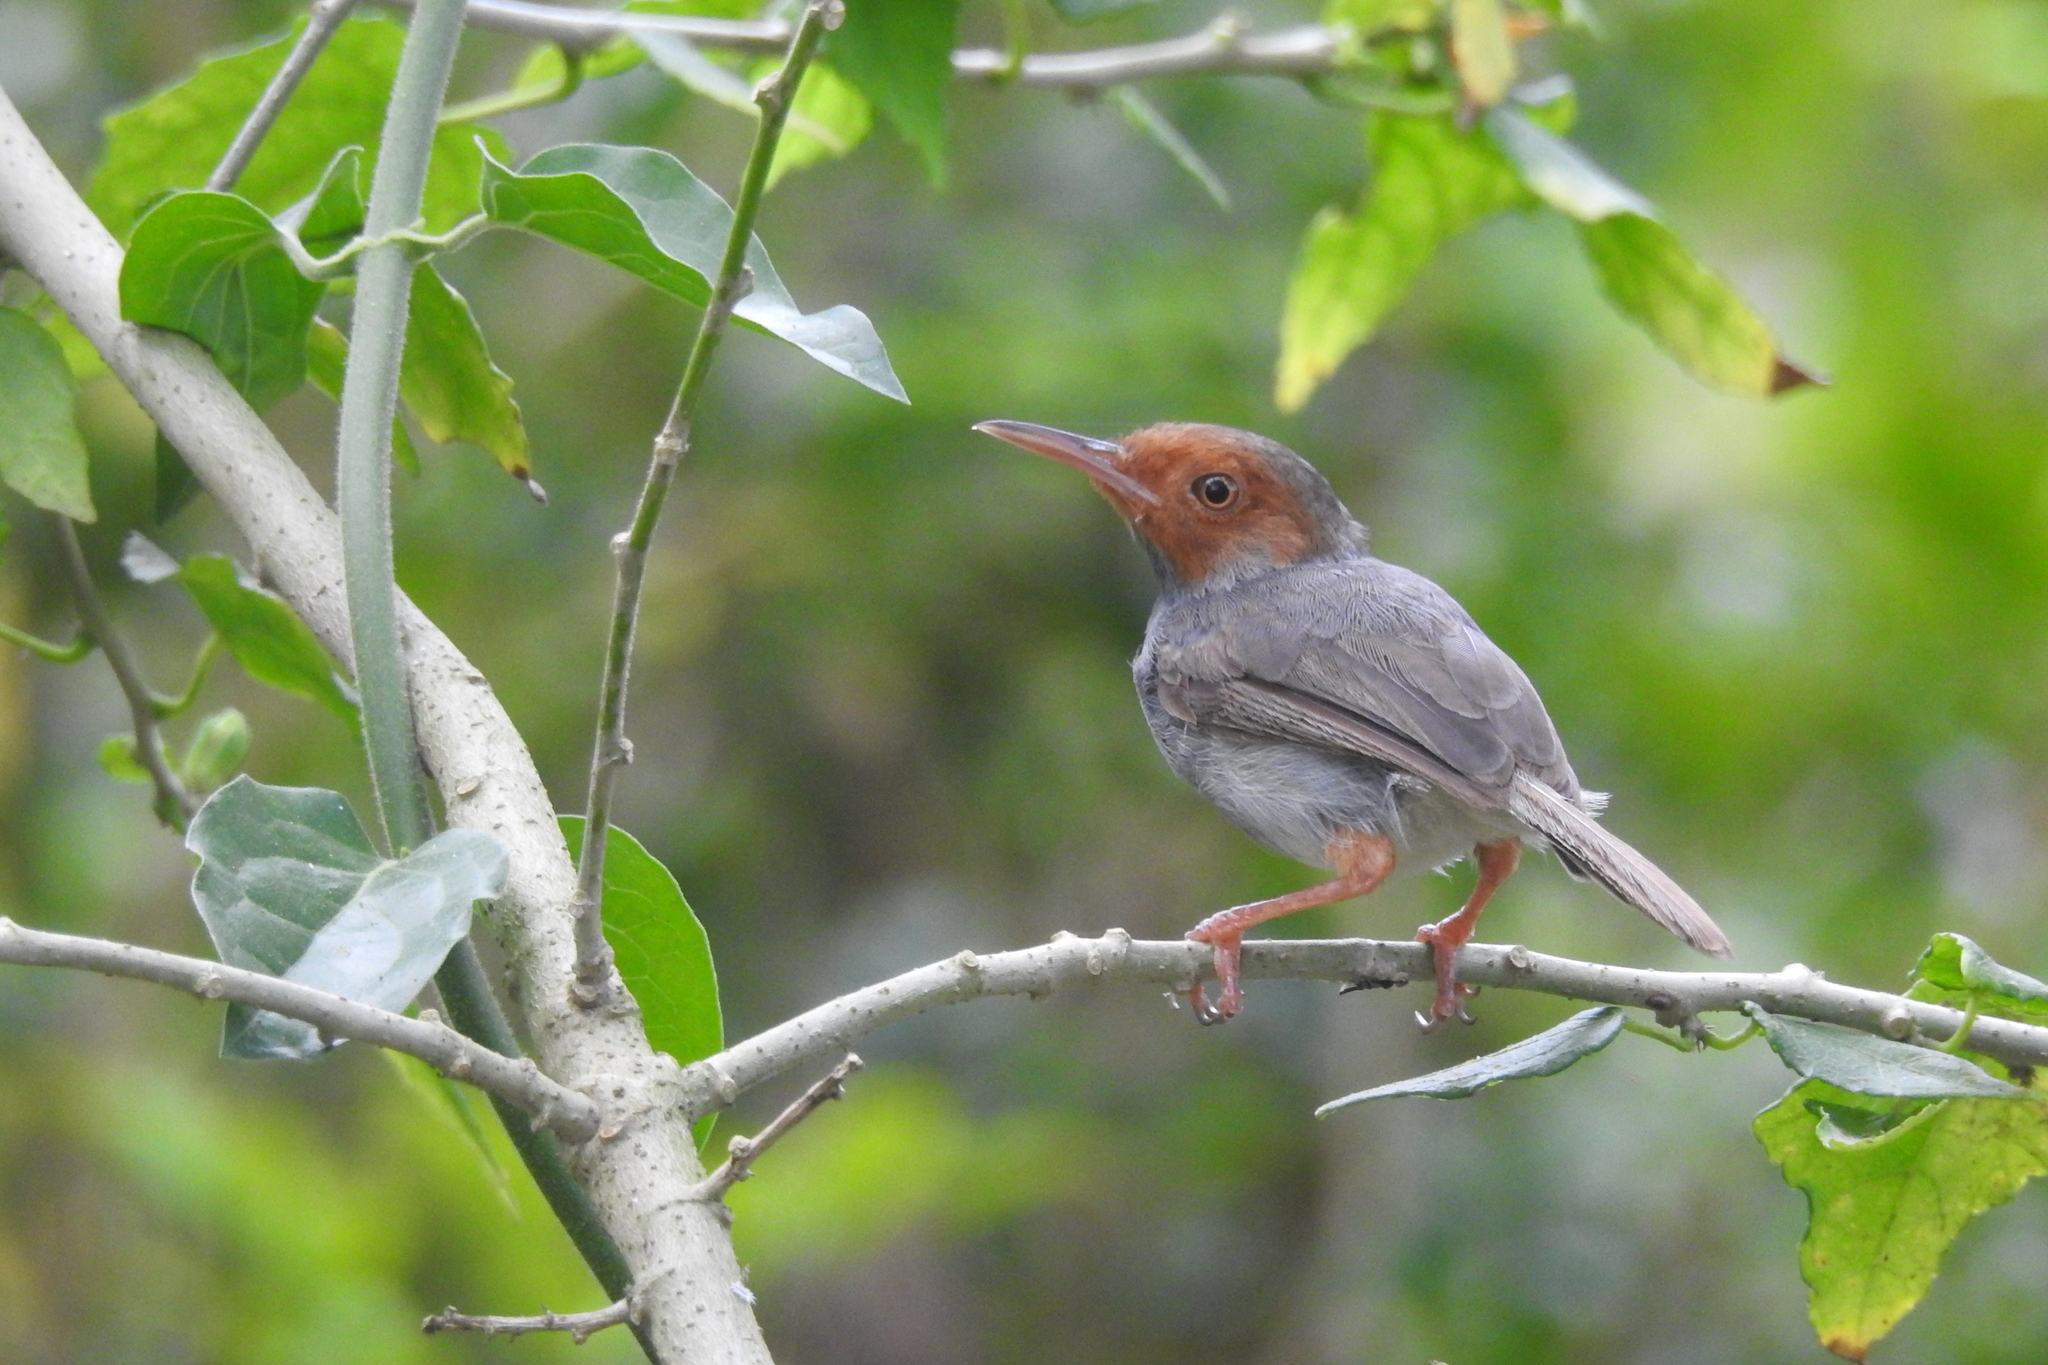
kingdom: Animalia
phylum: Chordata
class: Aves
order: Passeriformes
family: Cisticolidae
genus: Orthotomus
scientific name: Orthotomus ruficeps
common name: Ashy tailorbird
